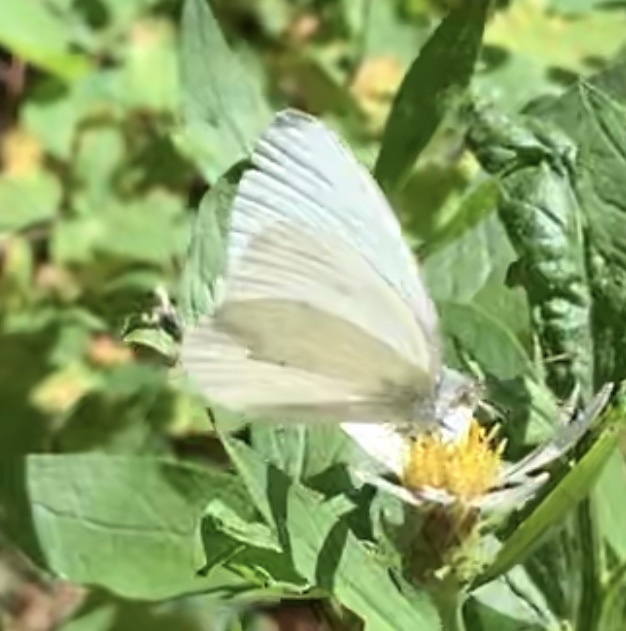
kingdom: Animalia
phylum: Arthropoda
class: Insecta
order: Lepidoptera
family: Pieridae
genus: Pieris
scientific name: Pieris marginalis
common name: Margined white
